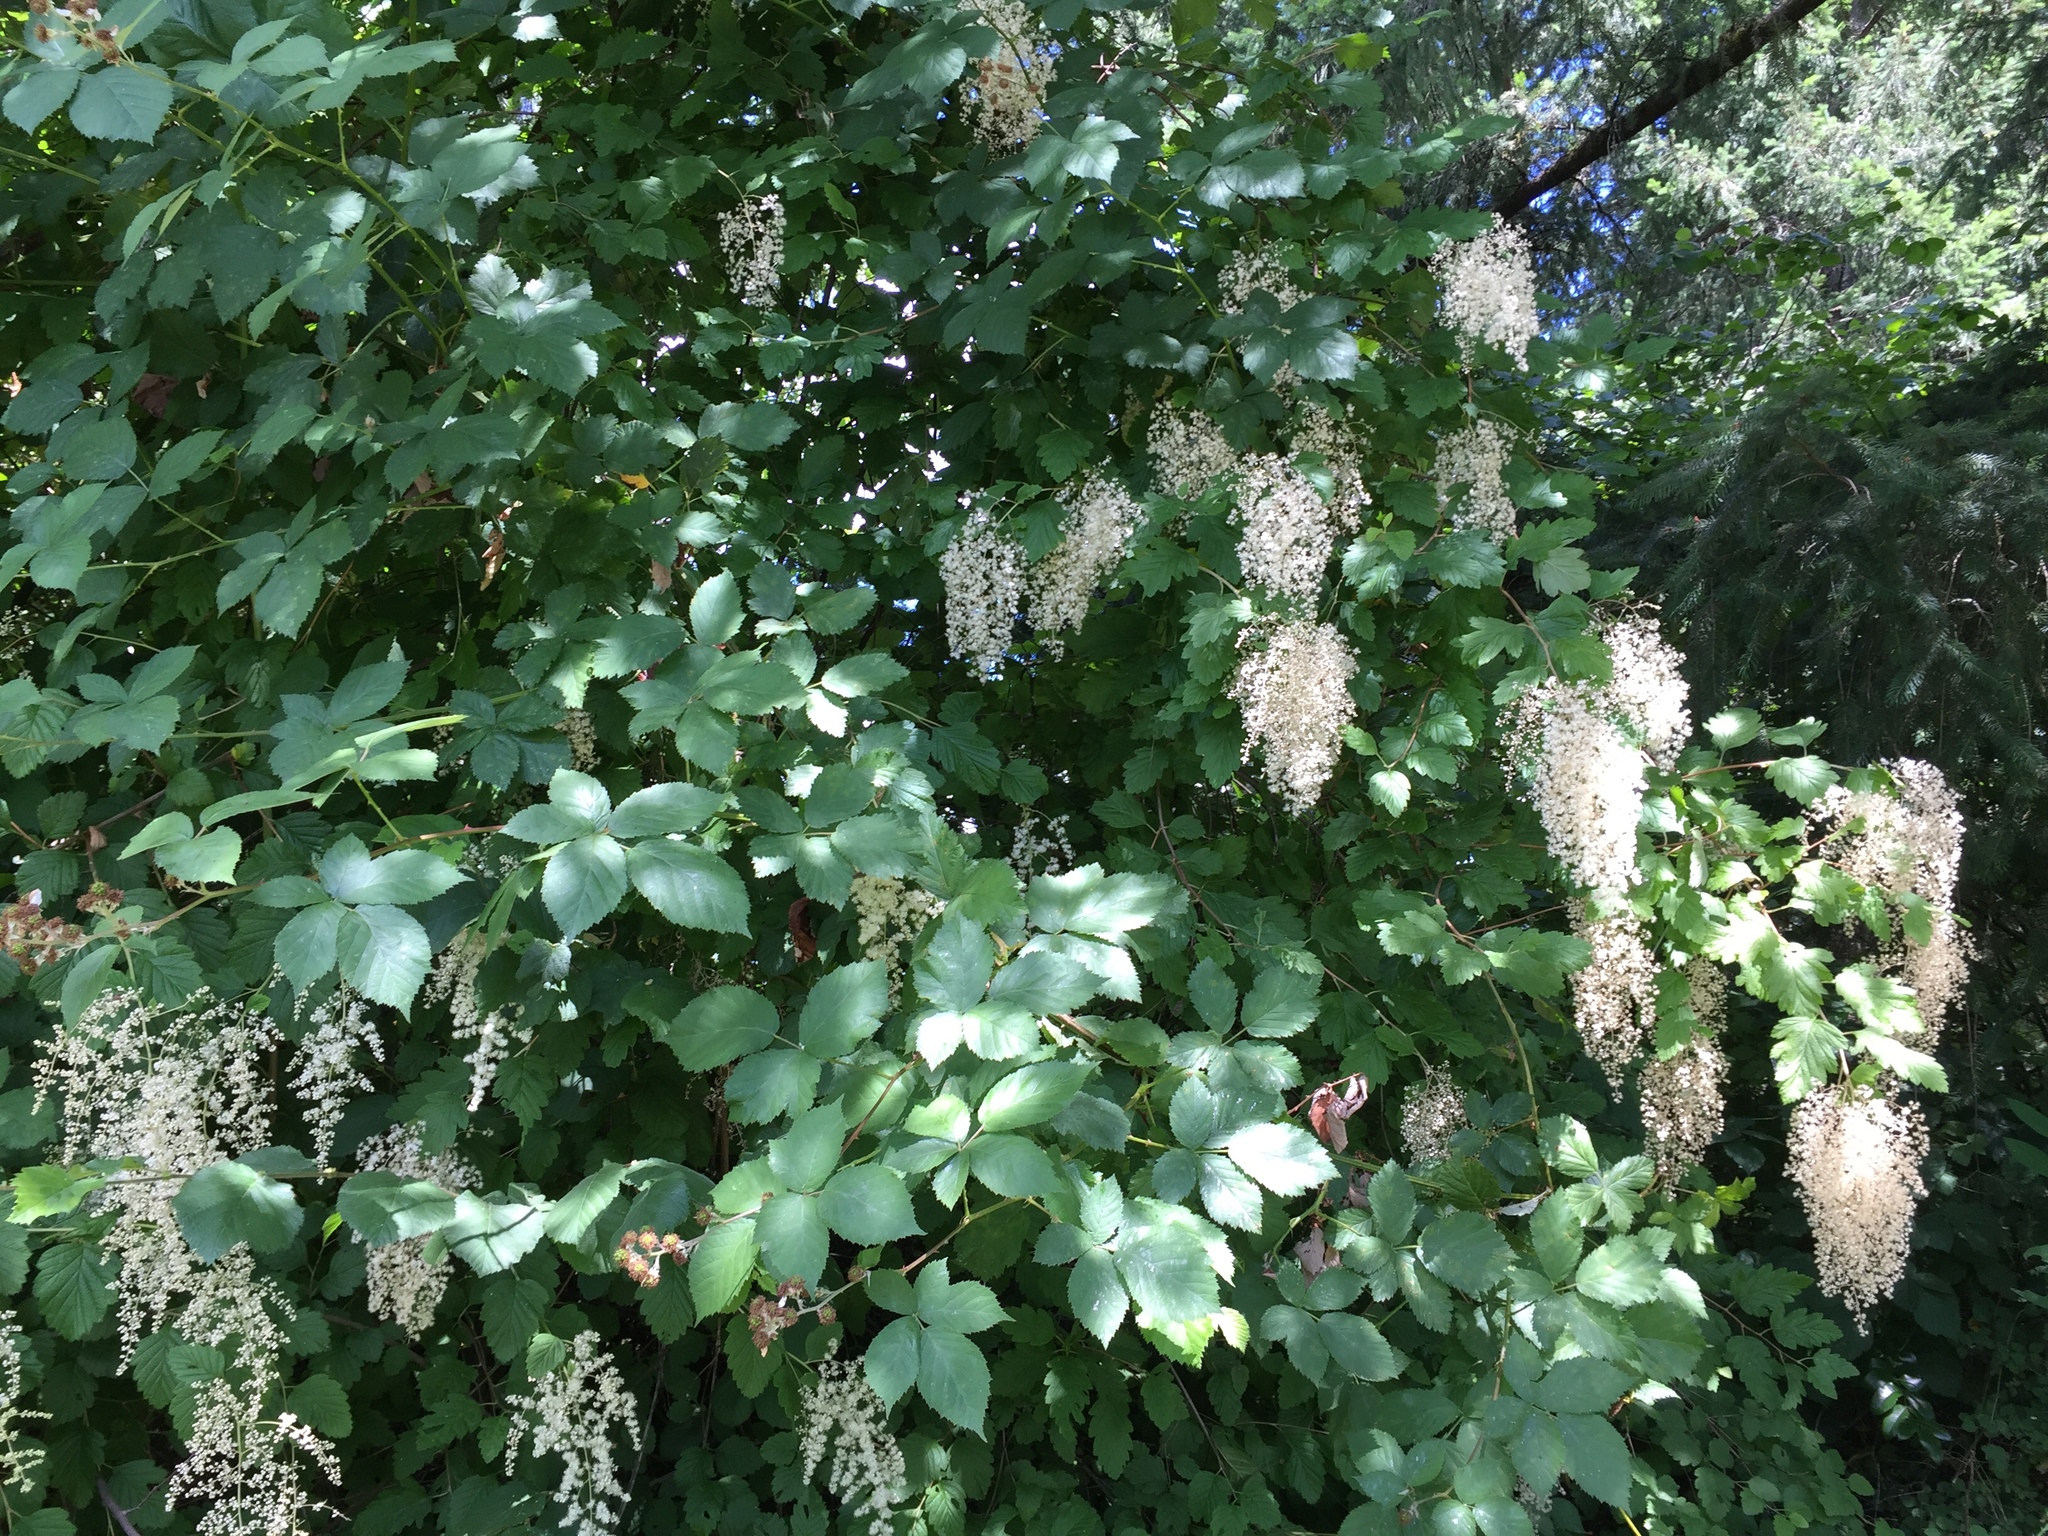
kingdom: Plantae
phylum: Tracheophyta
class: Magnoliopsida
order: Rosales
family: Rosaceae
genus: Holodiscus
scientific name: Holodiscus discolor
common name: Oceanspray
